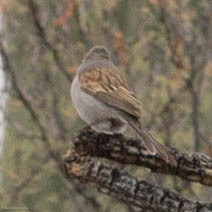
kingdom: Animalia
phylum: Chordata
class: Aves
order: Passeriformes
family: Passerellidae
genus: Spizella
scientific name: Spizella atrogularis
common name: Black-chinned sparrow
